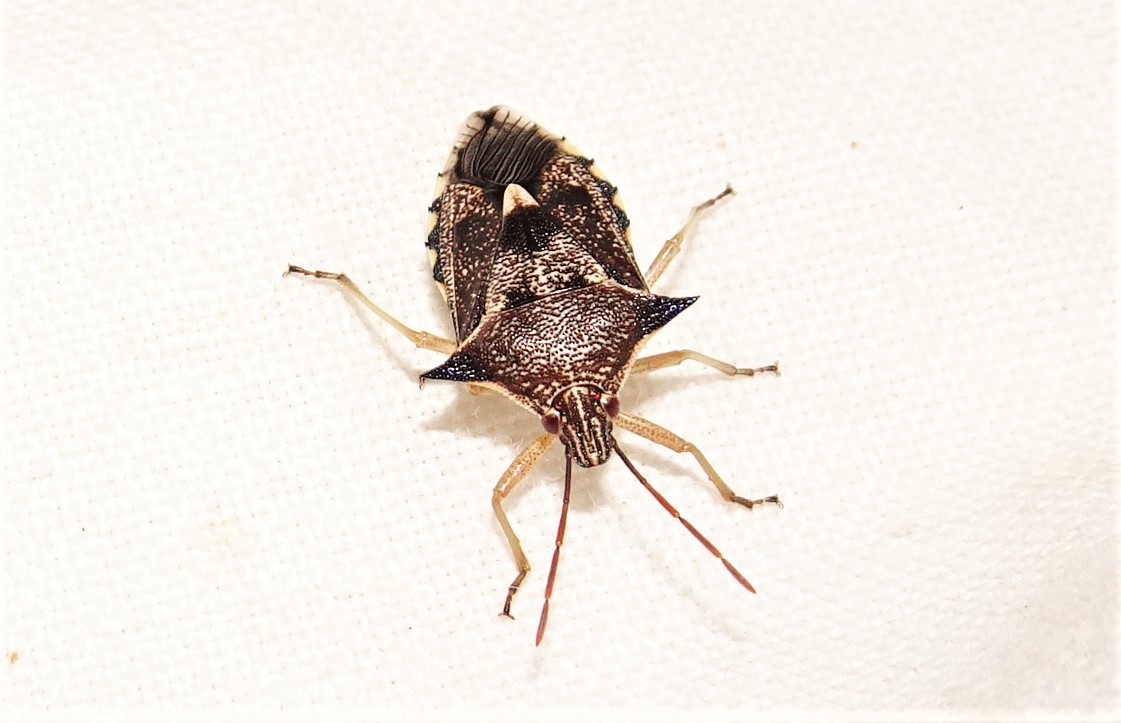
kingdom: Animalia
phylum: Arthropoda
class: Insecta
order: Hemiptera
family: Pentatomidae
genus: Oechalia
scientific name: Oechalia schellenbergii
